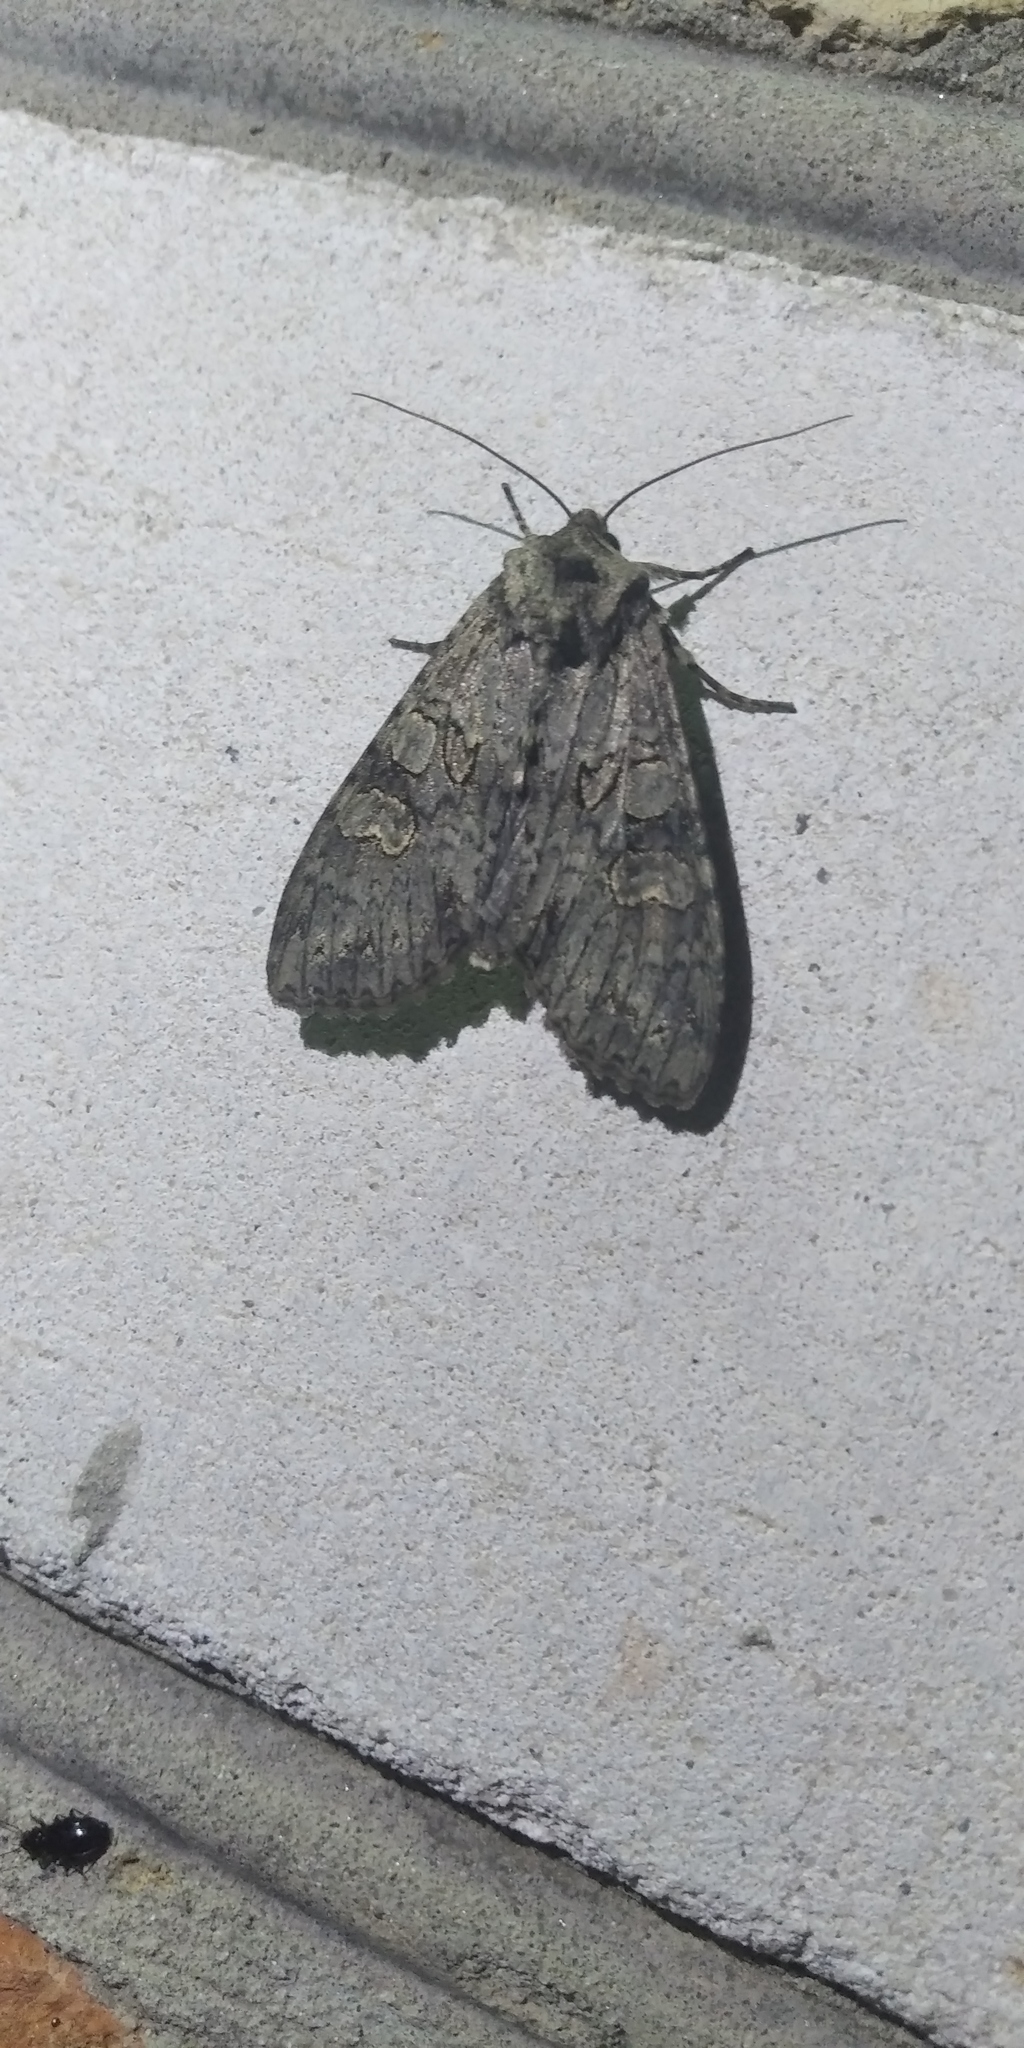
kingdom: Animalia
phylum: Arthropoda
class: Insecta
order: Lepidoptera
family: Noctuidae
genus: Polia
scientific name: Polia nebulosa
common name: Grey arches
